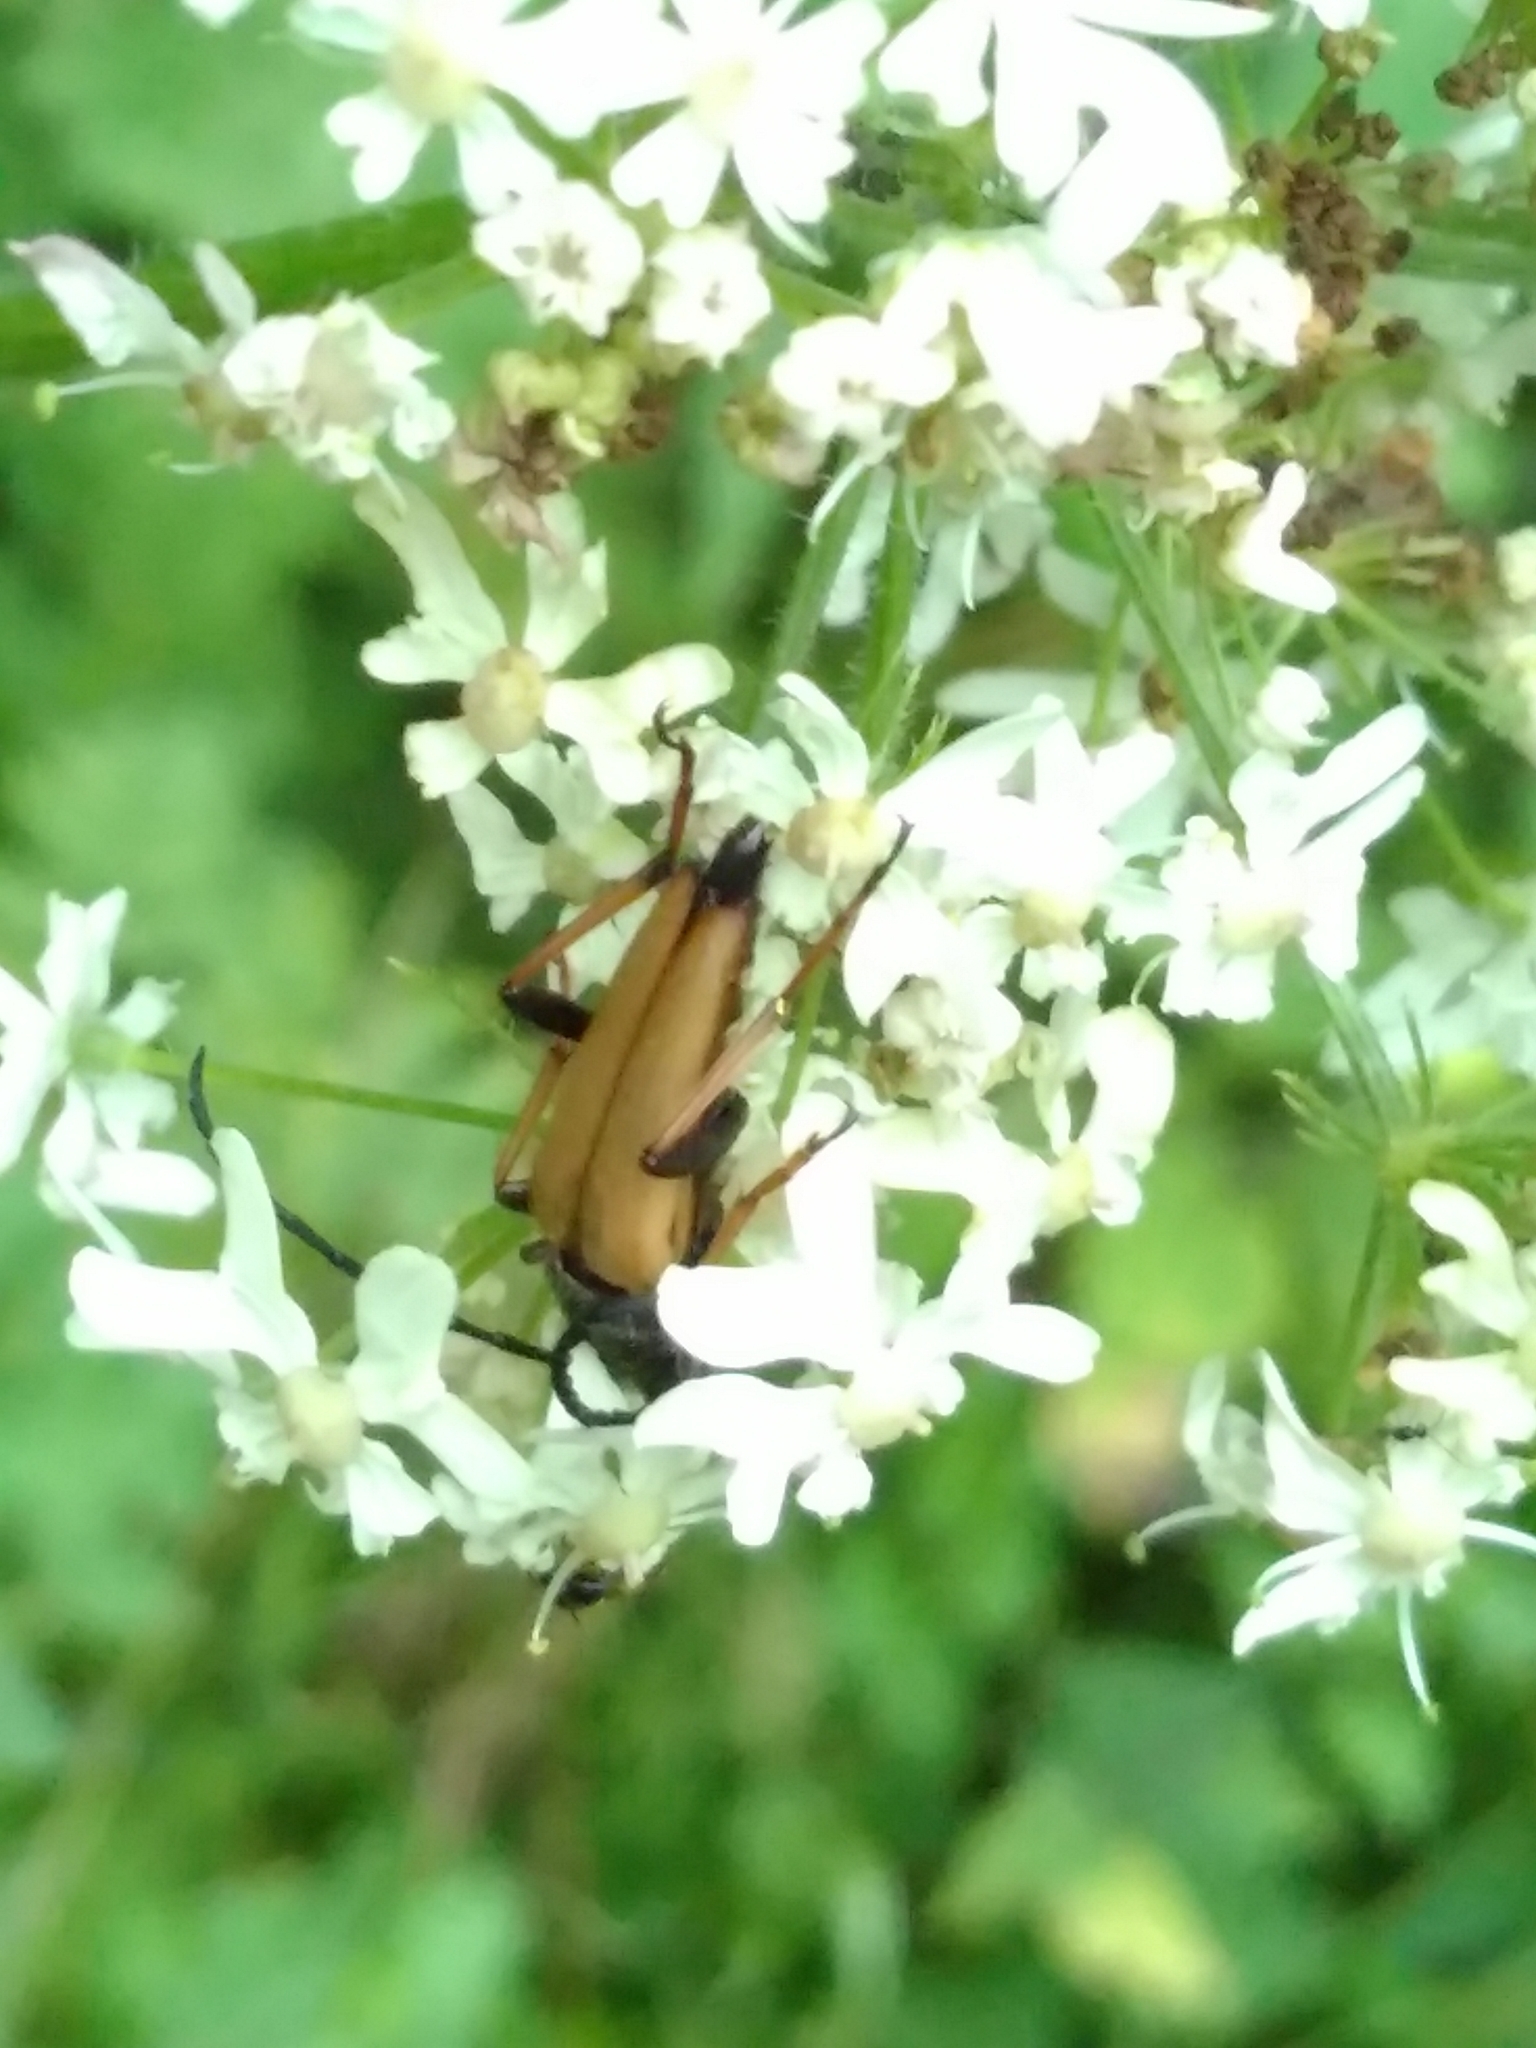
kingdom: Animalia
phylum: Arthropoda
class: Insecta
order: Coleoptera
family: Cerambycidae
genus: Stictoleptura
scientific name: Stictoleptura rubra
